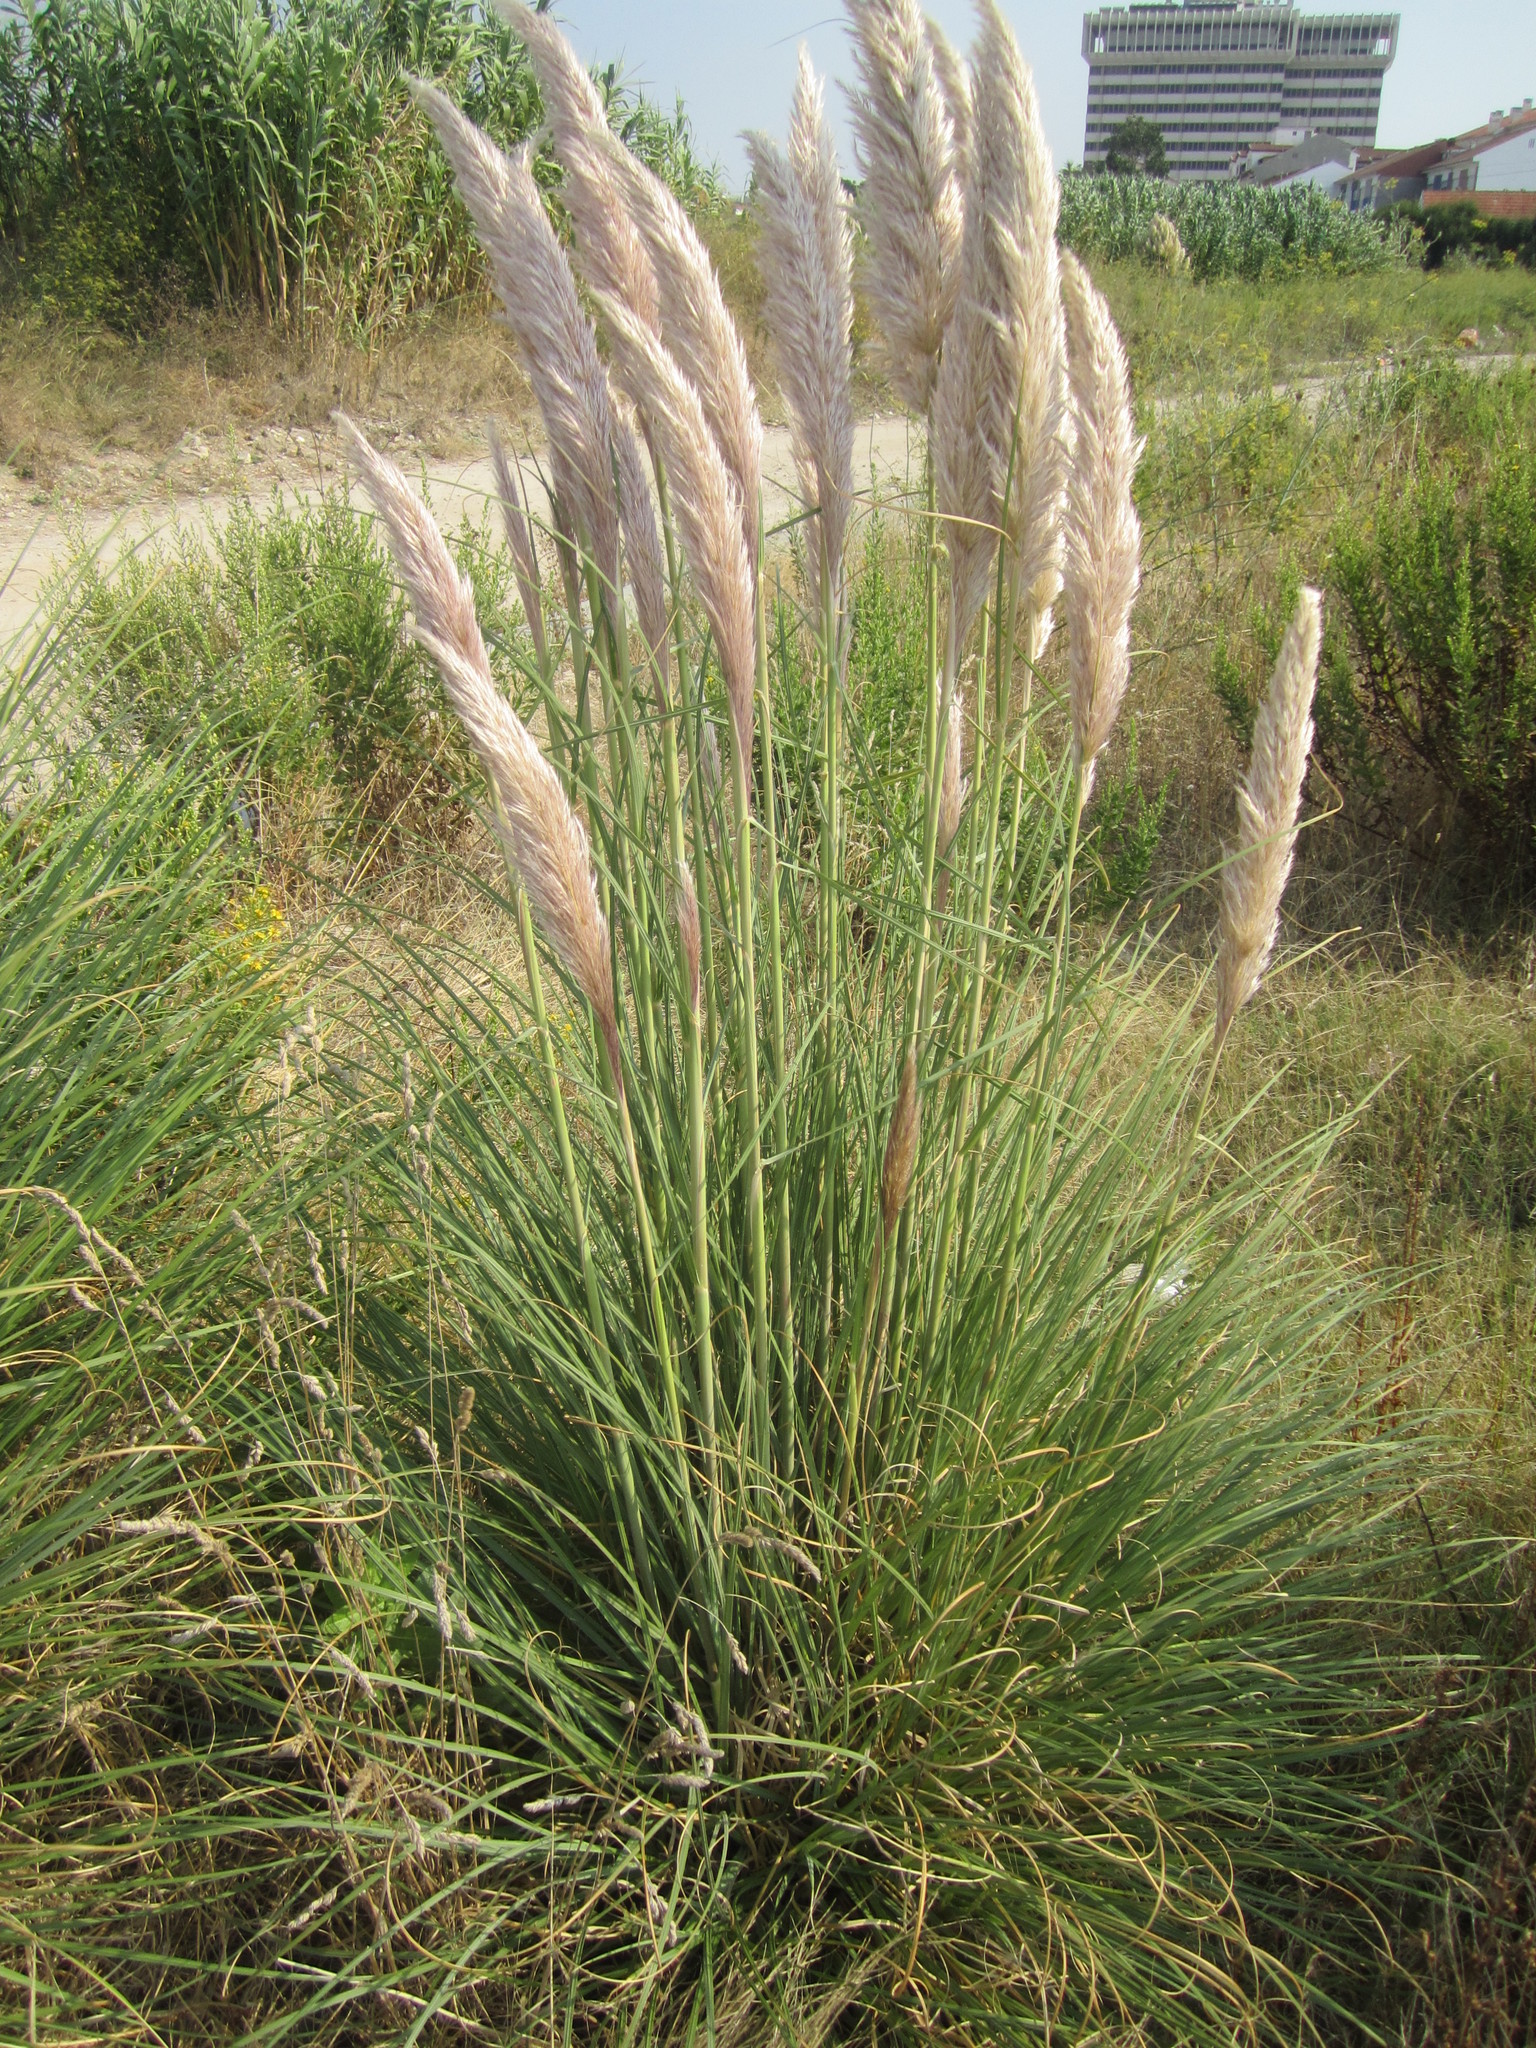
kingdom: Plantae
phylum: Tracheophyta
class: Liliopsida
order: Poales
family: Poaceae
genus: Cortaderia
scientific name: Cortaderia selloana
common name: Uruguayan pampas grass
